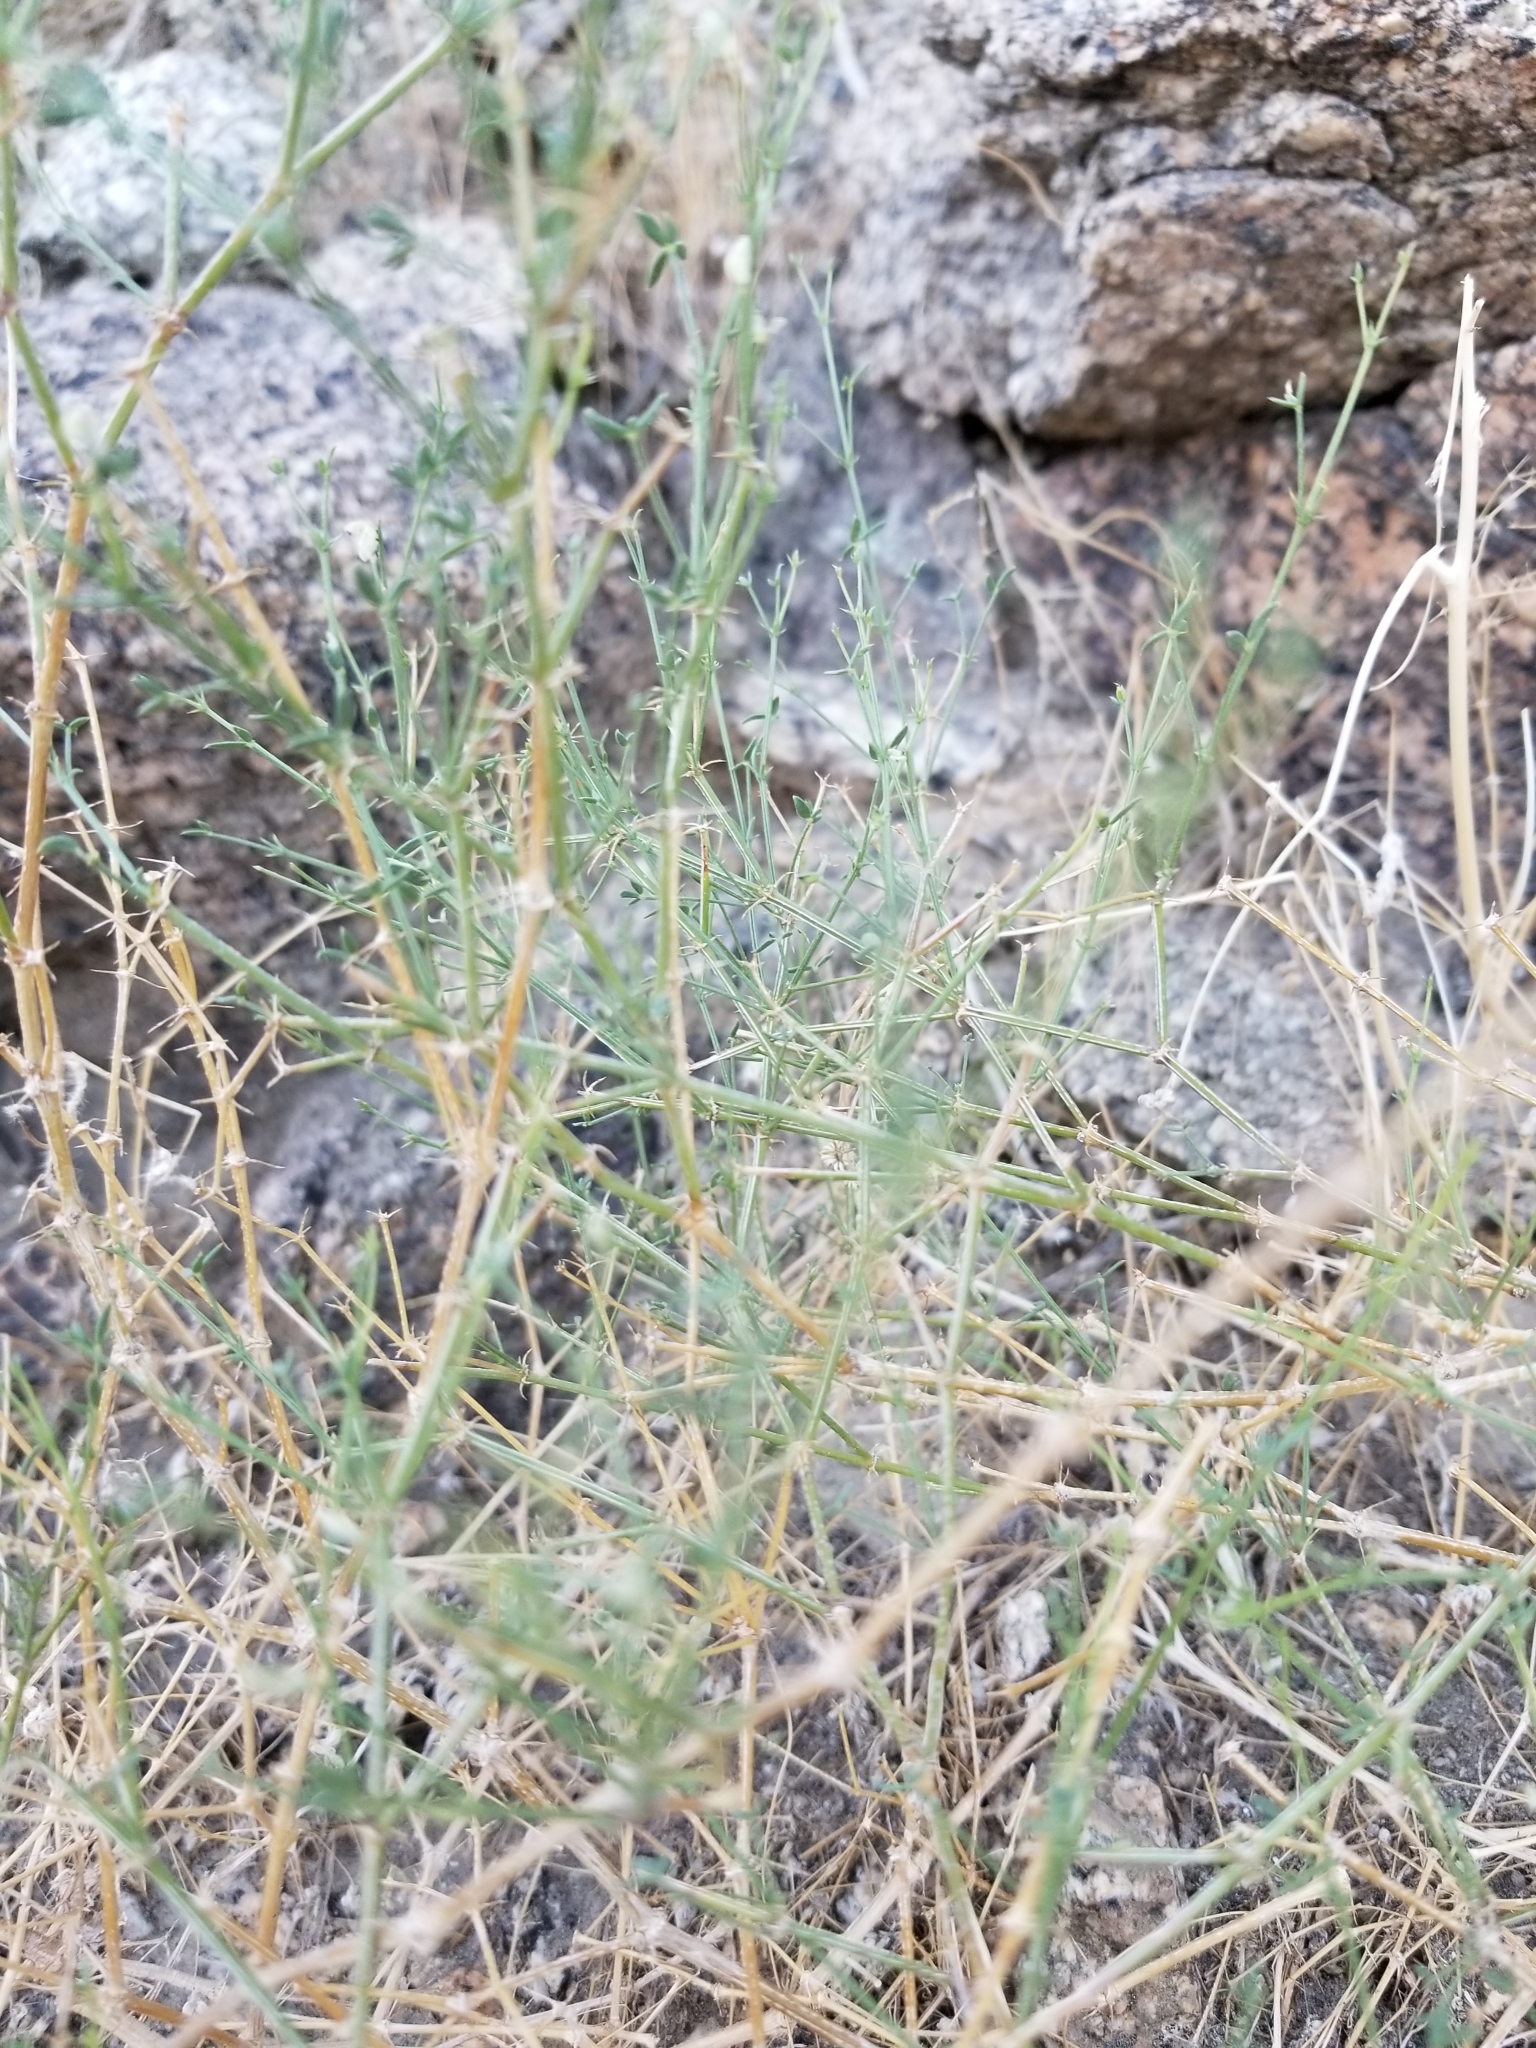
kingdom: Plantae
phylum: Tracheophyta
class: Magnoliopsida
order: Zygophyllales
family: Zygophyllaceae
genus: Fagonia
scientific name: Fagonia laevis
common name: California fagonbush
